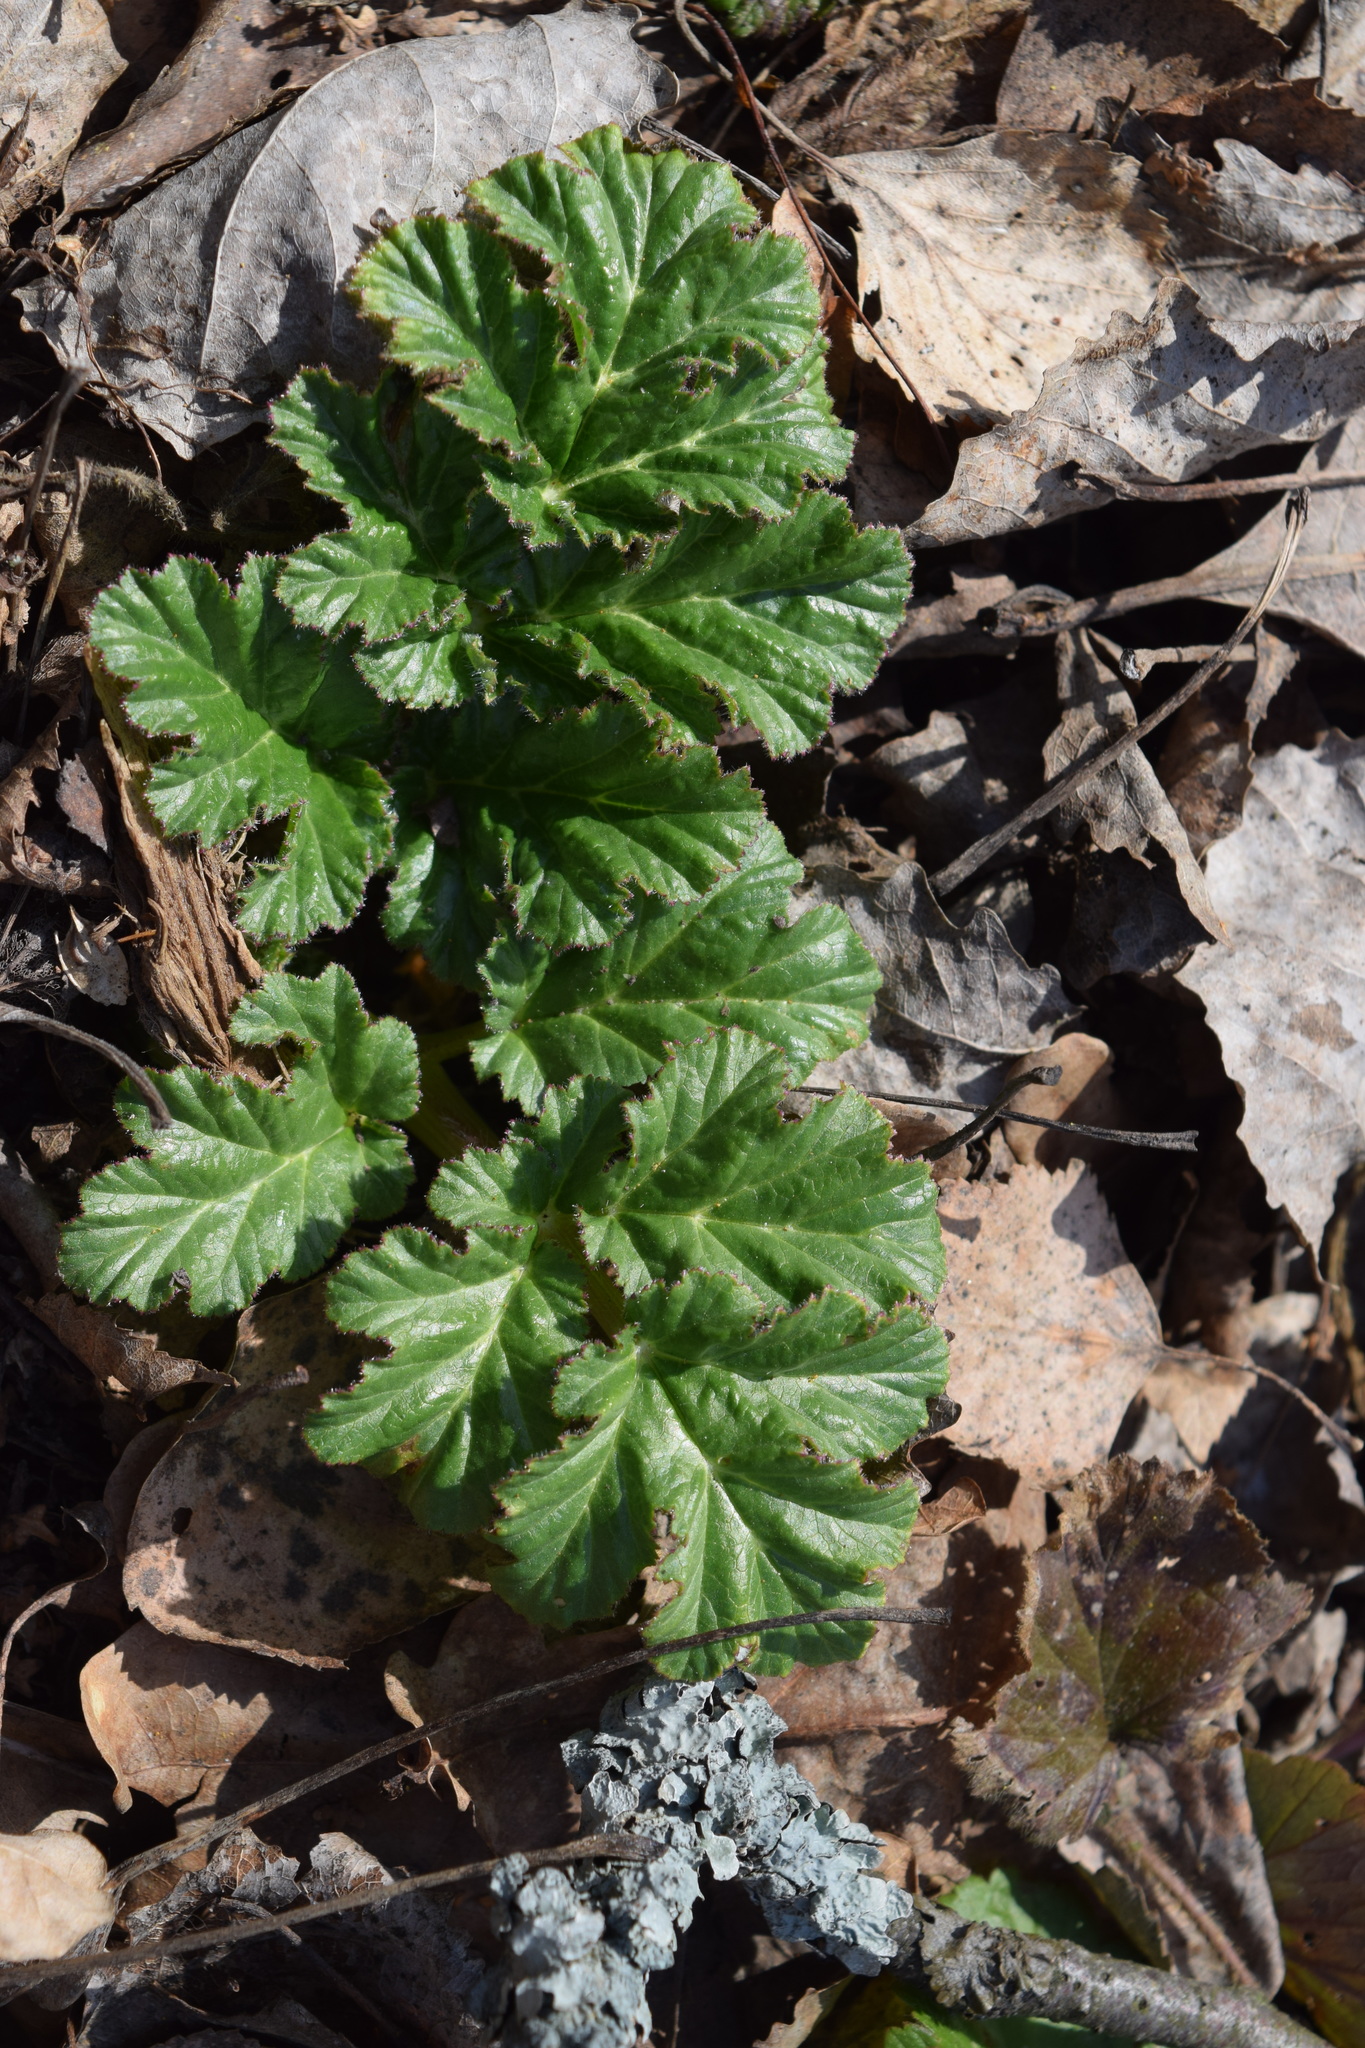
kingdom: Plantae
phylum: Tracheophyta
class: Magnoliopsida
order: Apiales
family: Apiaceae
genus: Heracleum
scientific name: Heracleum sosnowskyi
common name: Sosnowsky's hogweed
